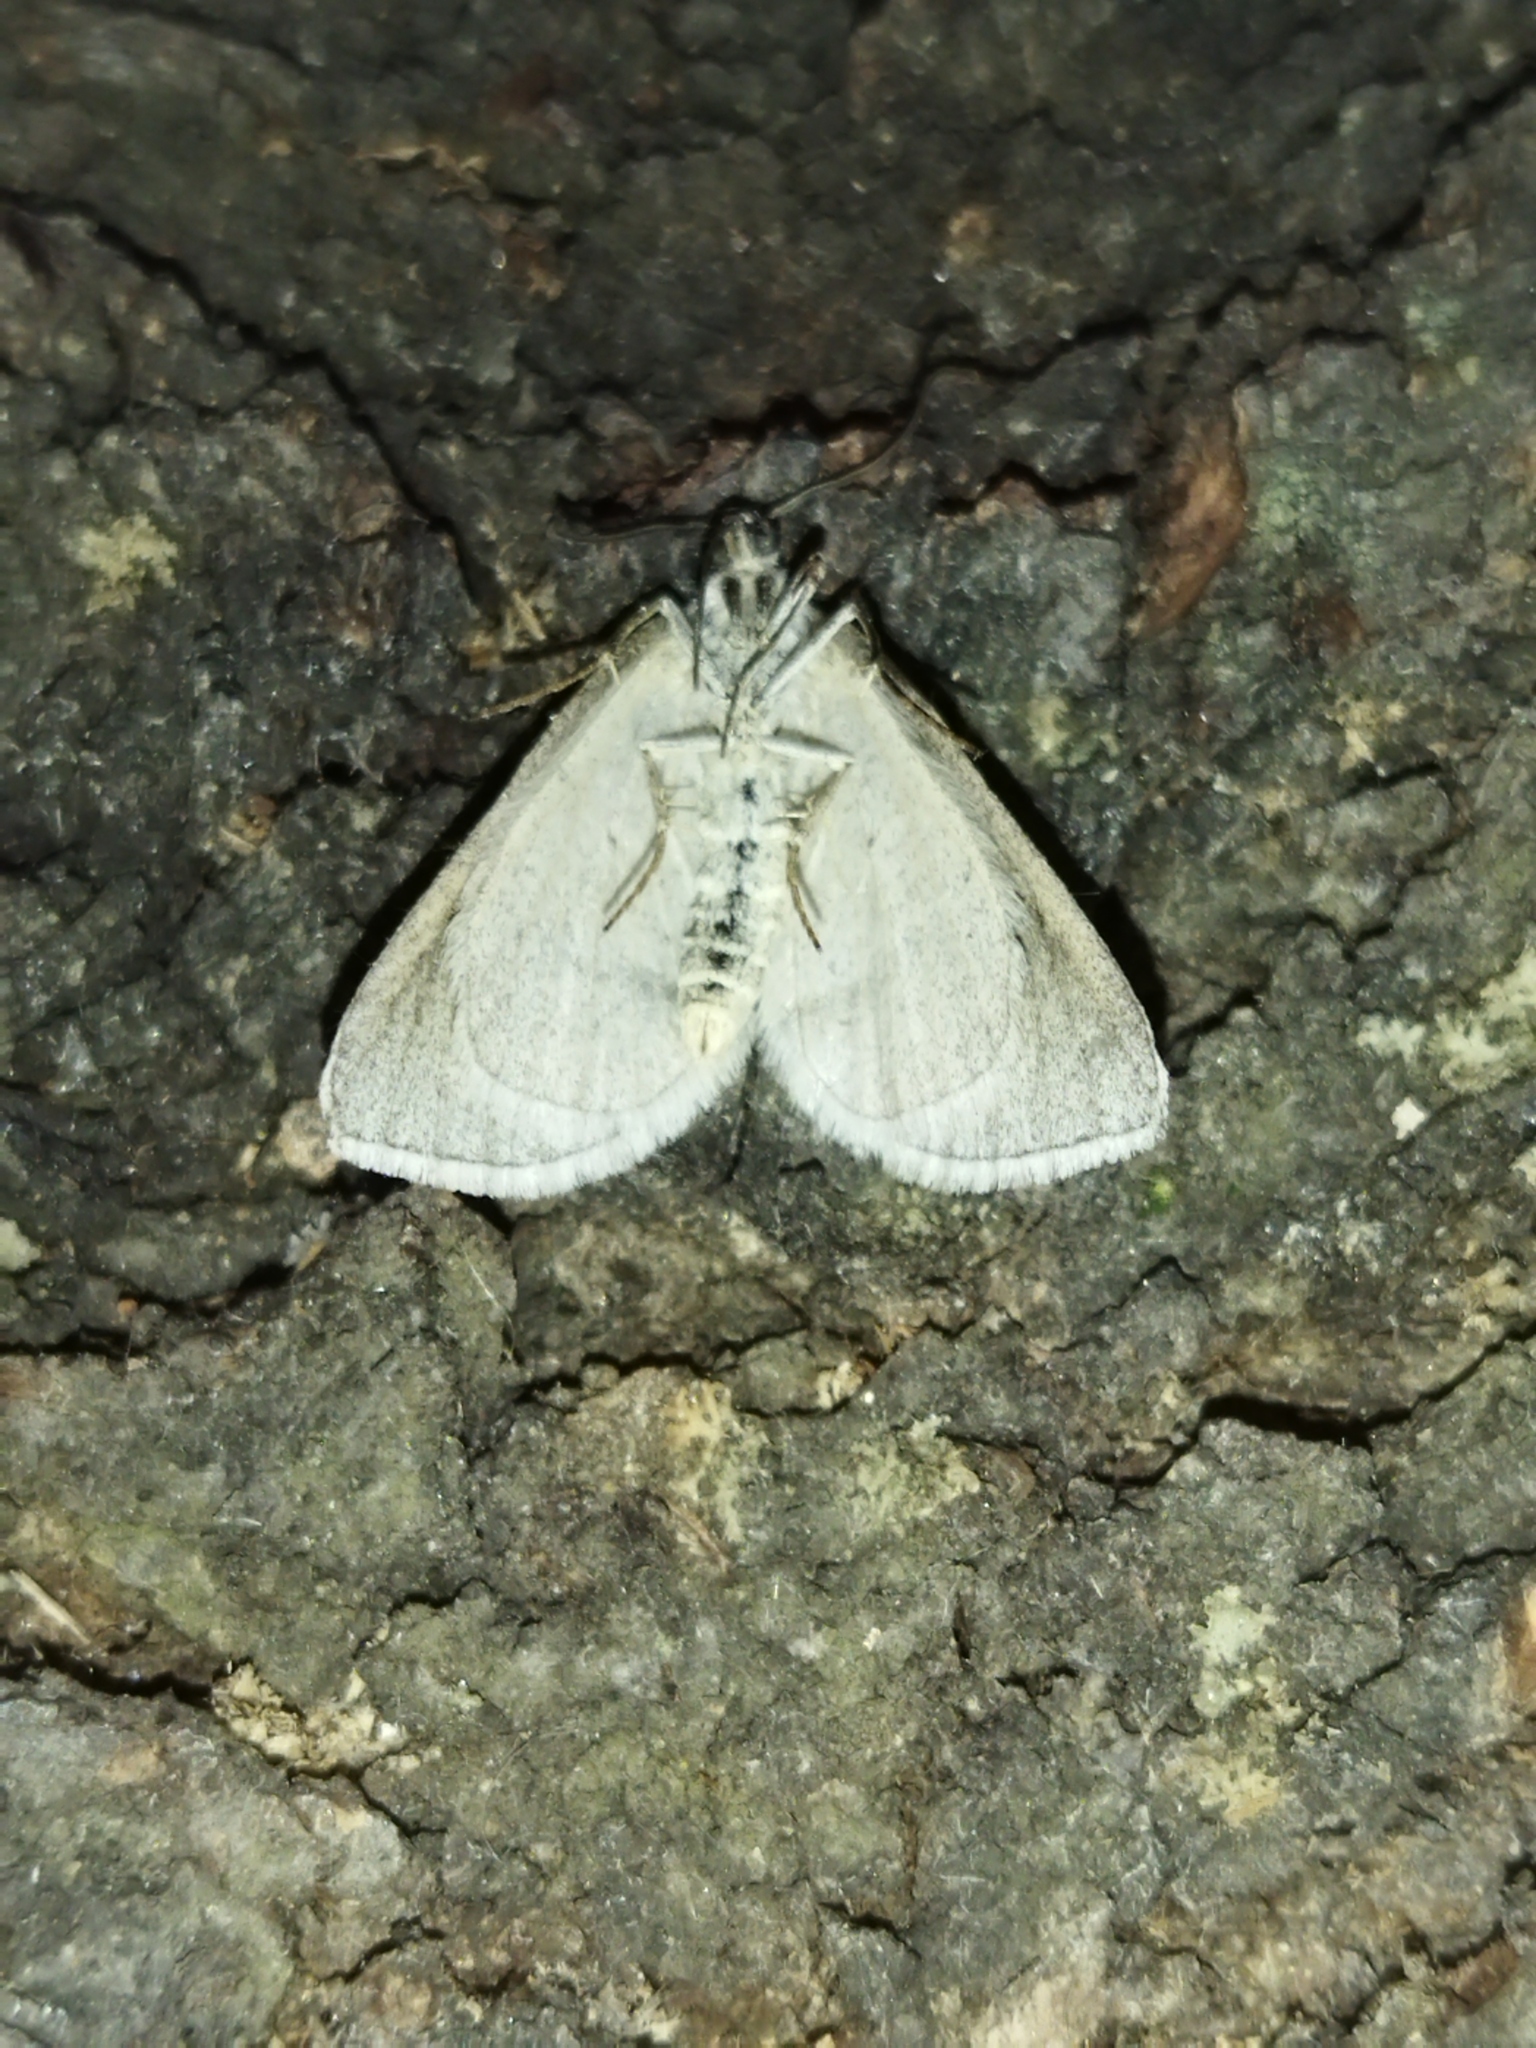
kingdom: Animalia
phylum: Arthropoda
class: Insecta
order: Lepidoptera
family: Geometridae
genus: Lithostege
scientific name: Lithostege griseata
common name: Grey carpet
